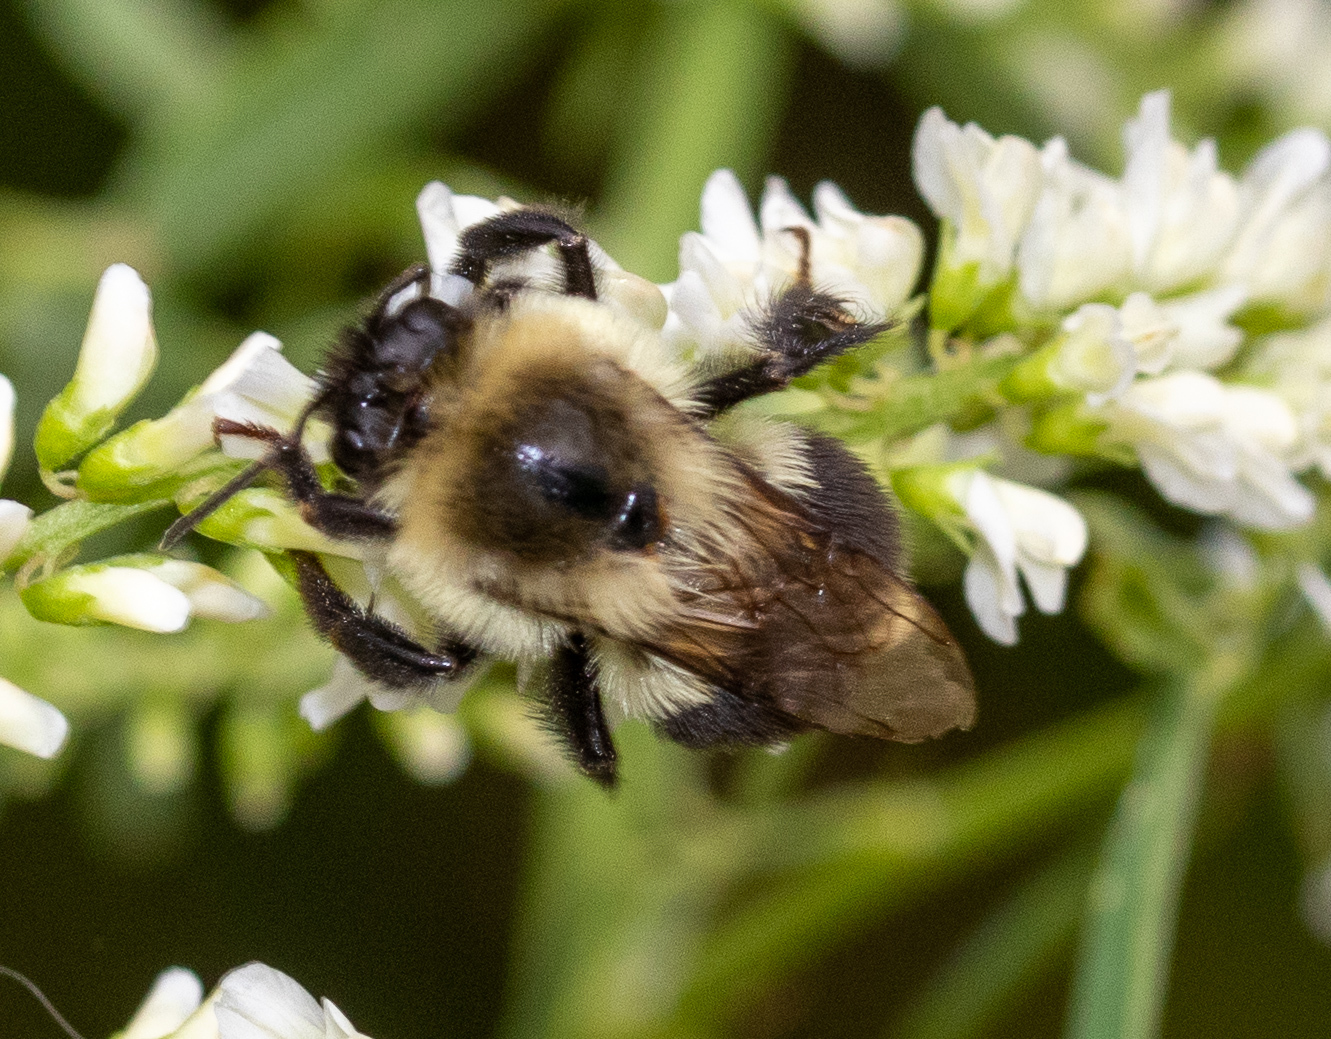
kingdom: Animalia
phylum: Arthropoda
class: Insecta
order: Hymenoptera
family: Apidae
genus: Bombus
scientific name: Bombus impatiens
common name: Common eastern bumble bee
